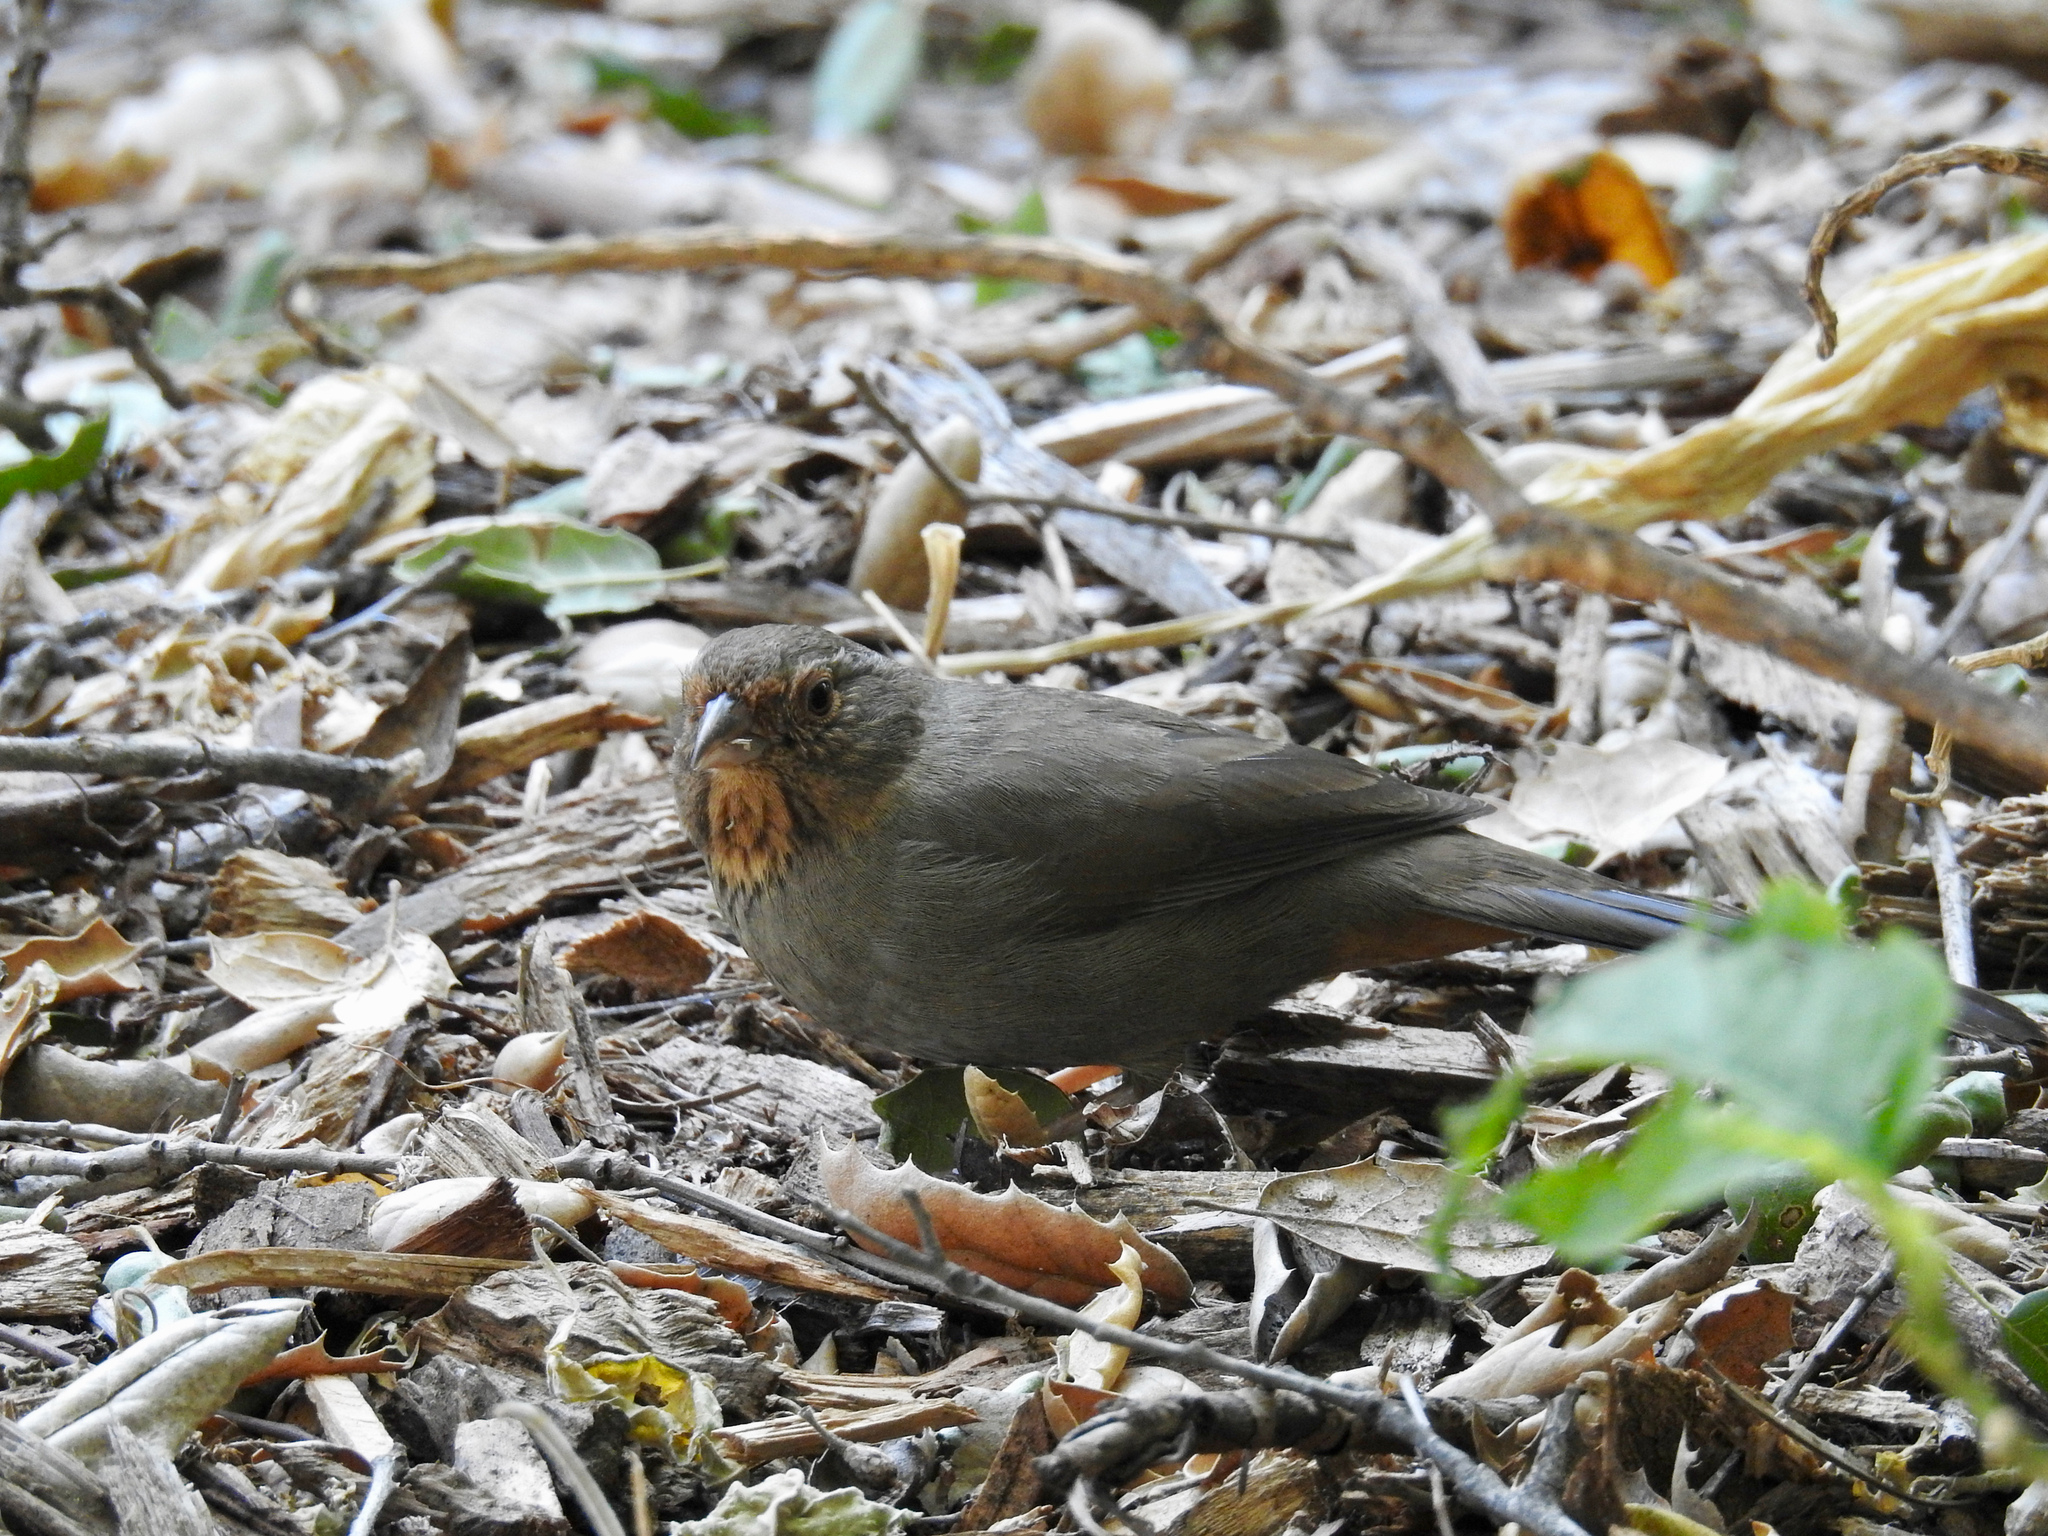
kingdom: Animalia
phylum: Chordata
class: Aves
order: Passeriformes
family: Passerellidae
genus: Melozone
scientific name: Melozone crissalis
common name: California towhee
